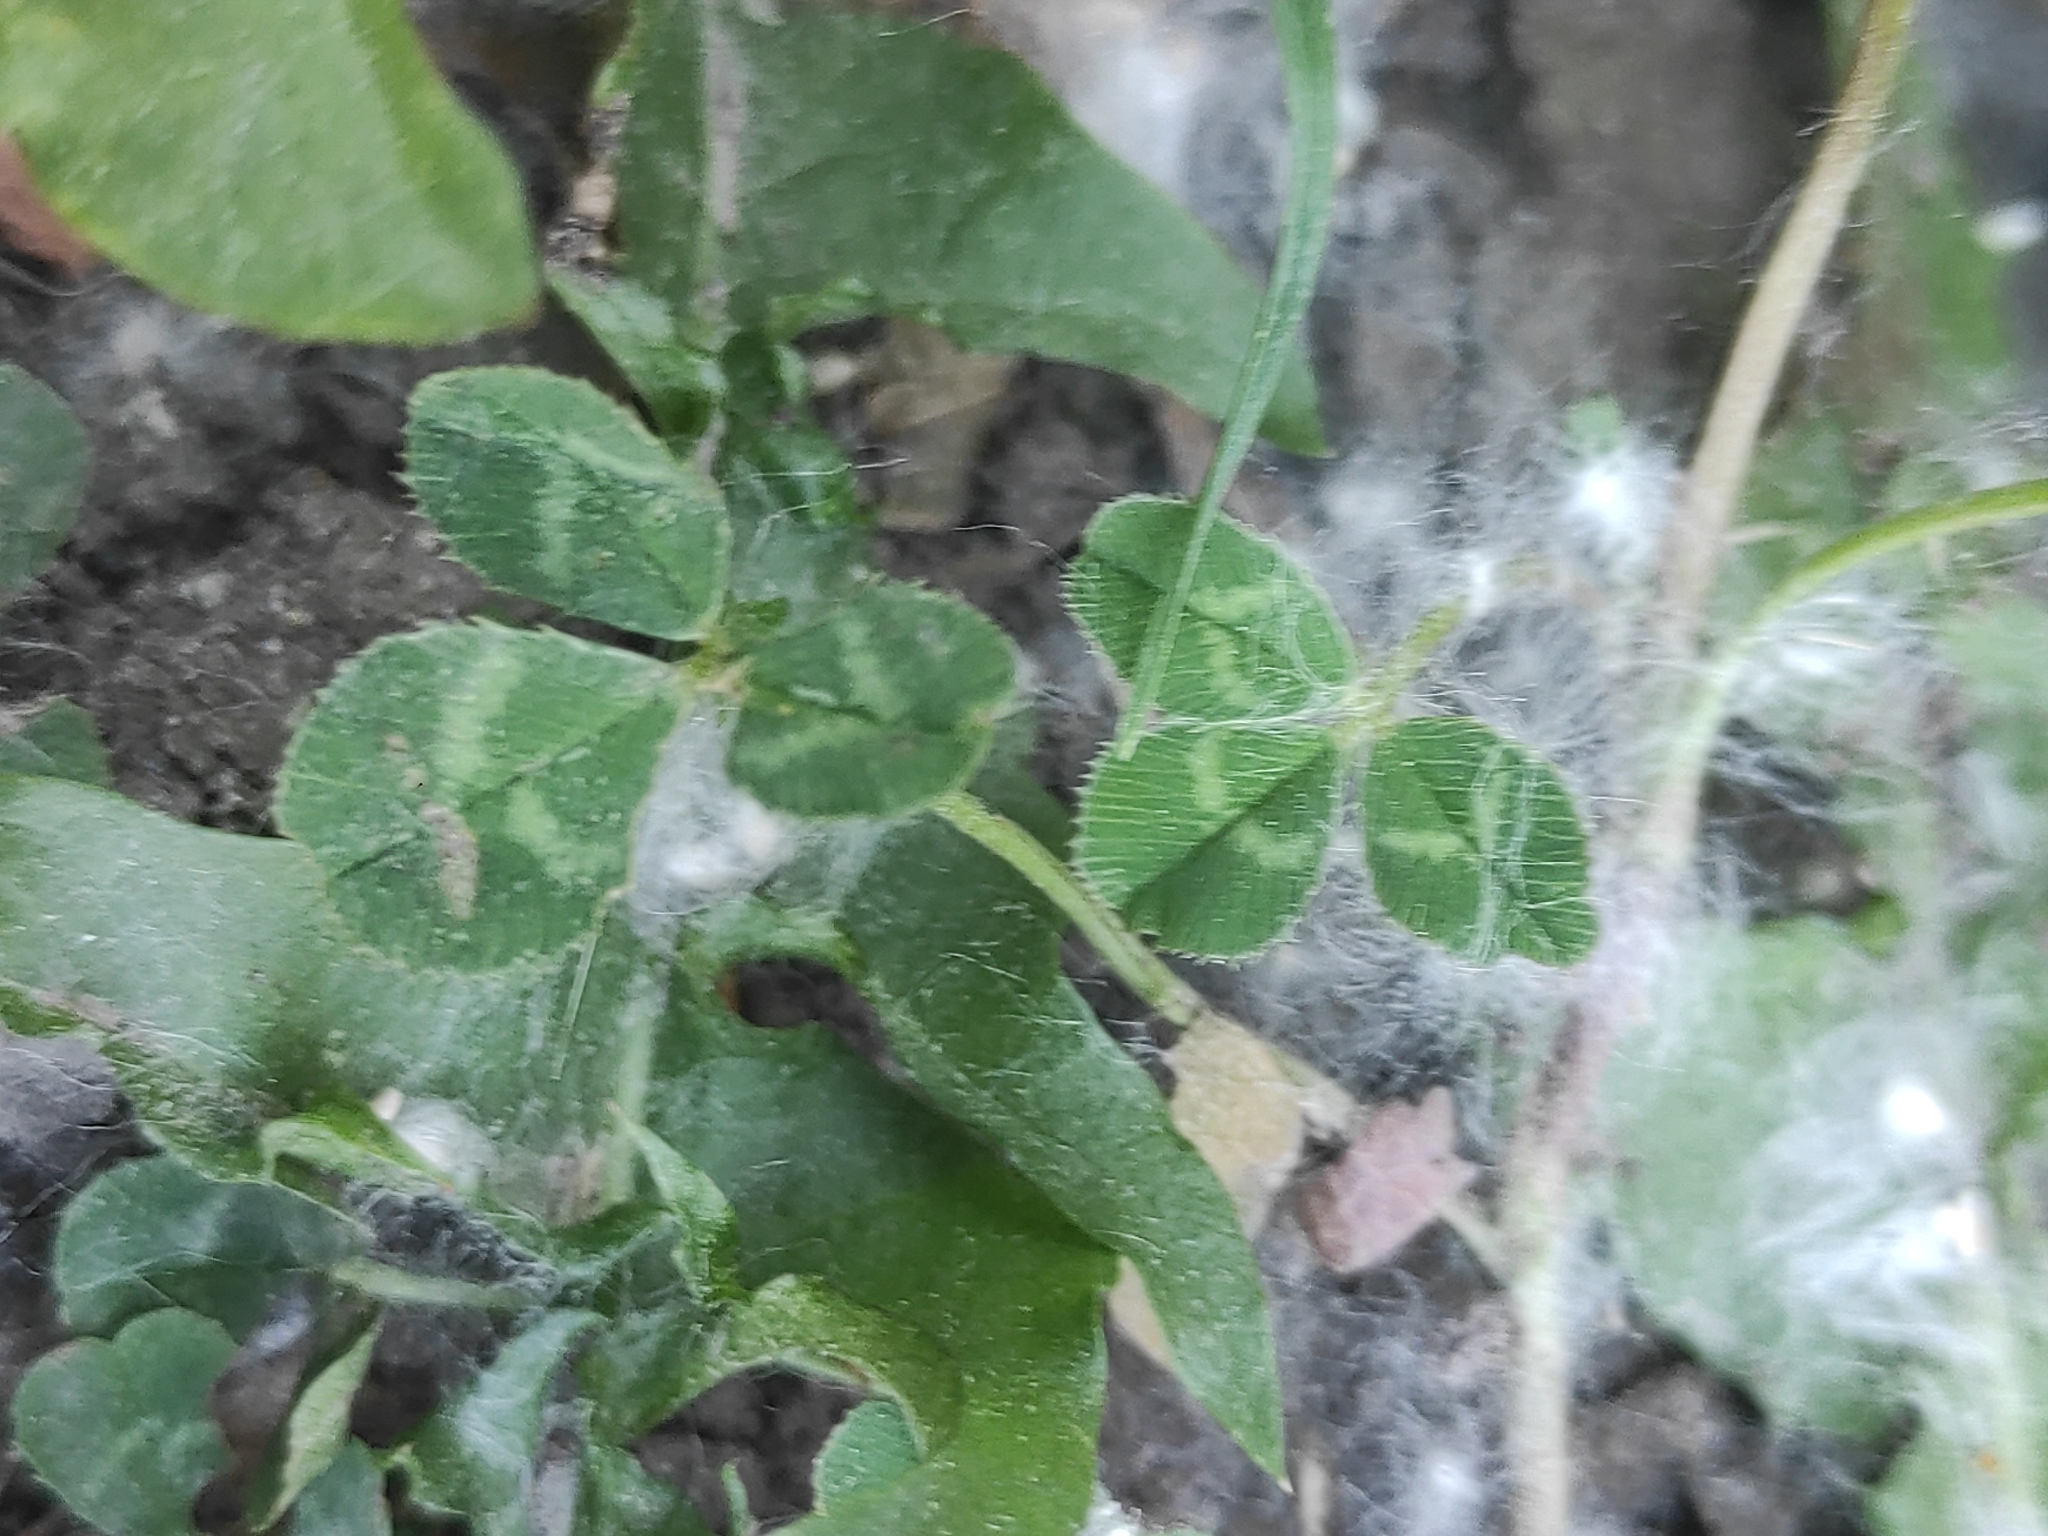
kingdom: Plantae
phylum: Tracheophyta
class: Magnoliopsida
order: Fabales
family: Fabaceae
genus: Trifolium
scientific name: Trifolium repens
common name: White clover
